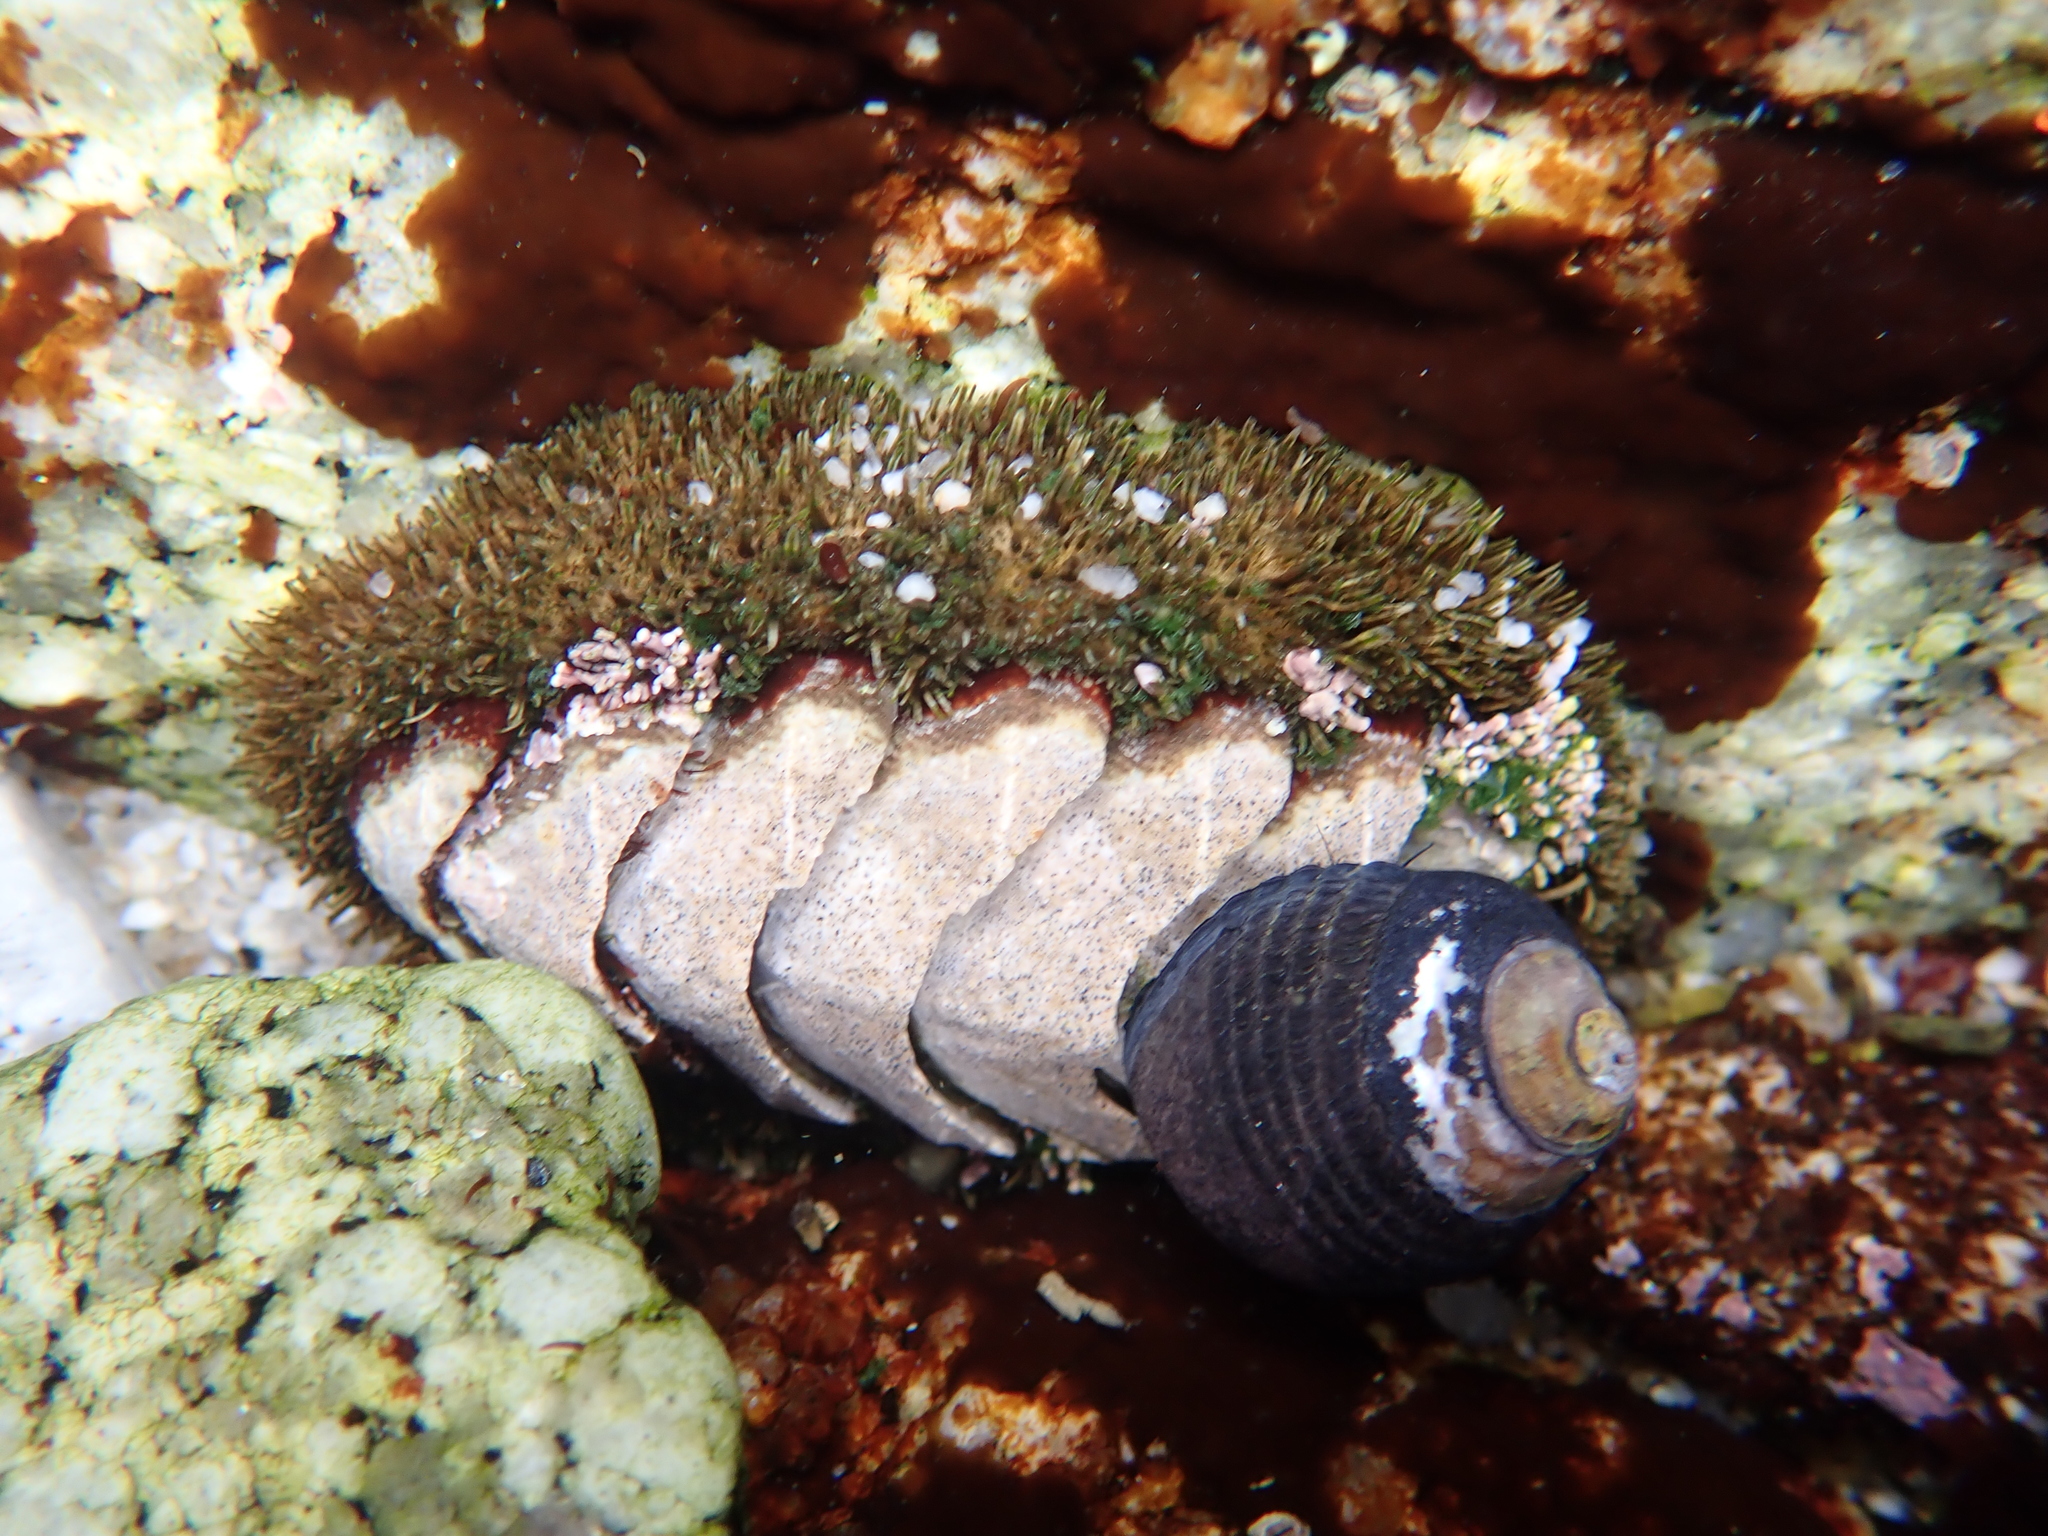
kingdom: Animalia
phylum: Mollusca
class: Polyplacophora
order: Chitonida
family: Mopaliidae
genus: Mopalia
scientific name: Mopalia muscosa
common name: Mossy chiton
